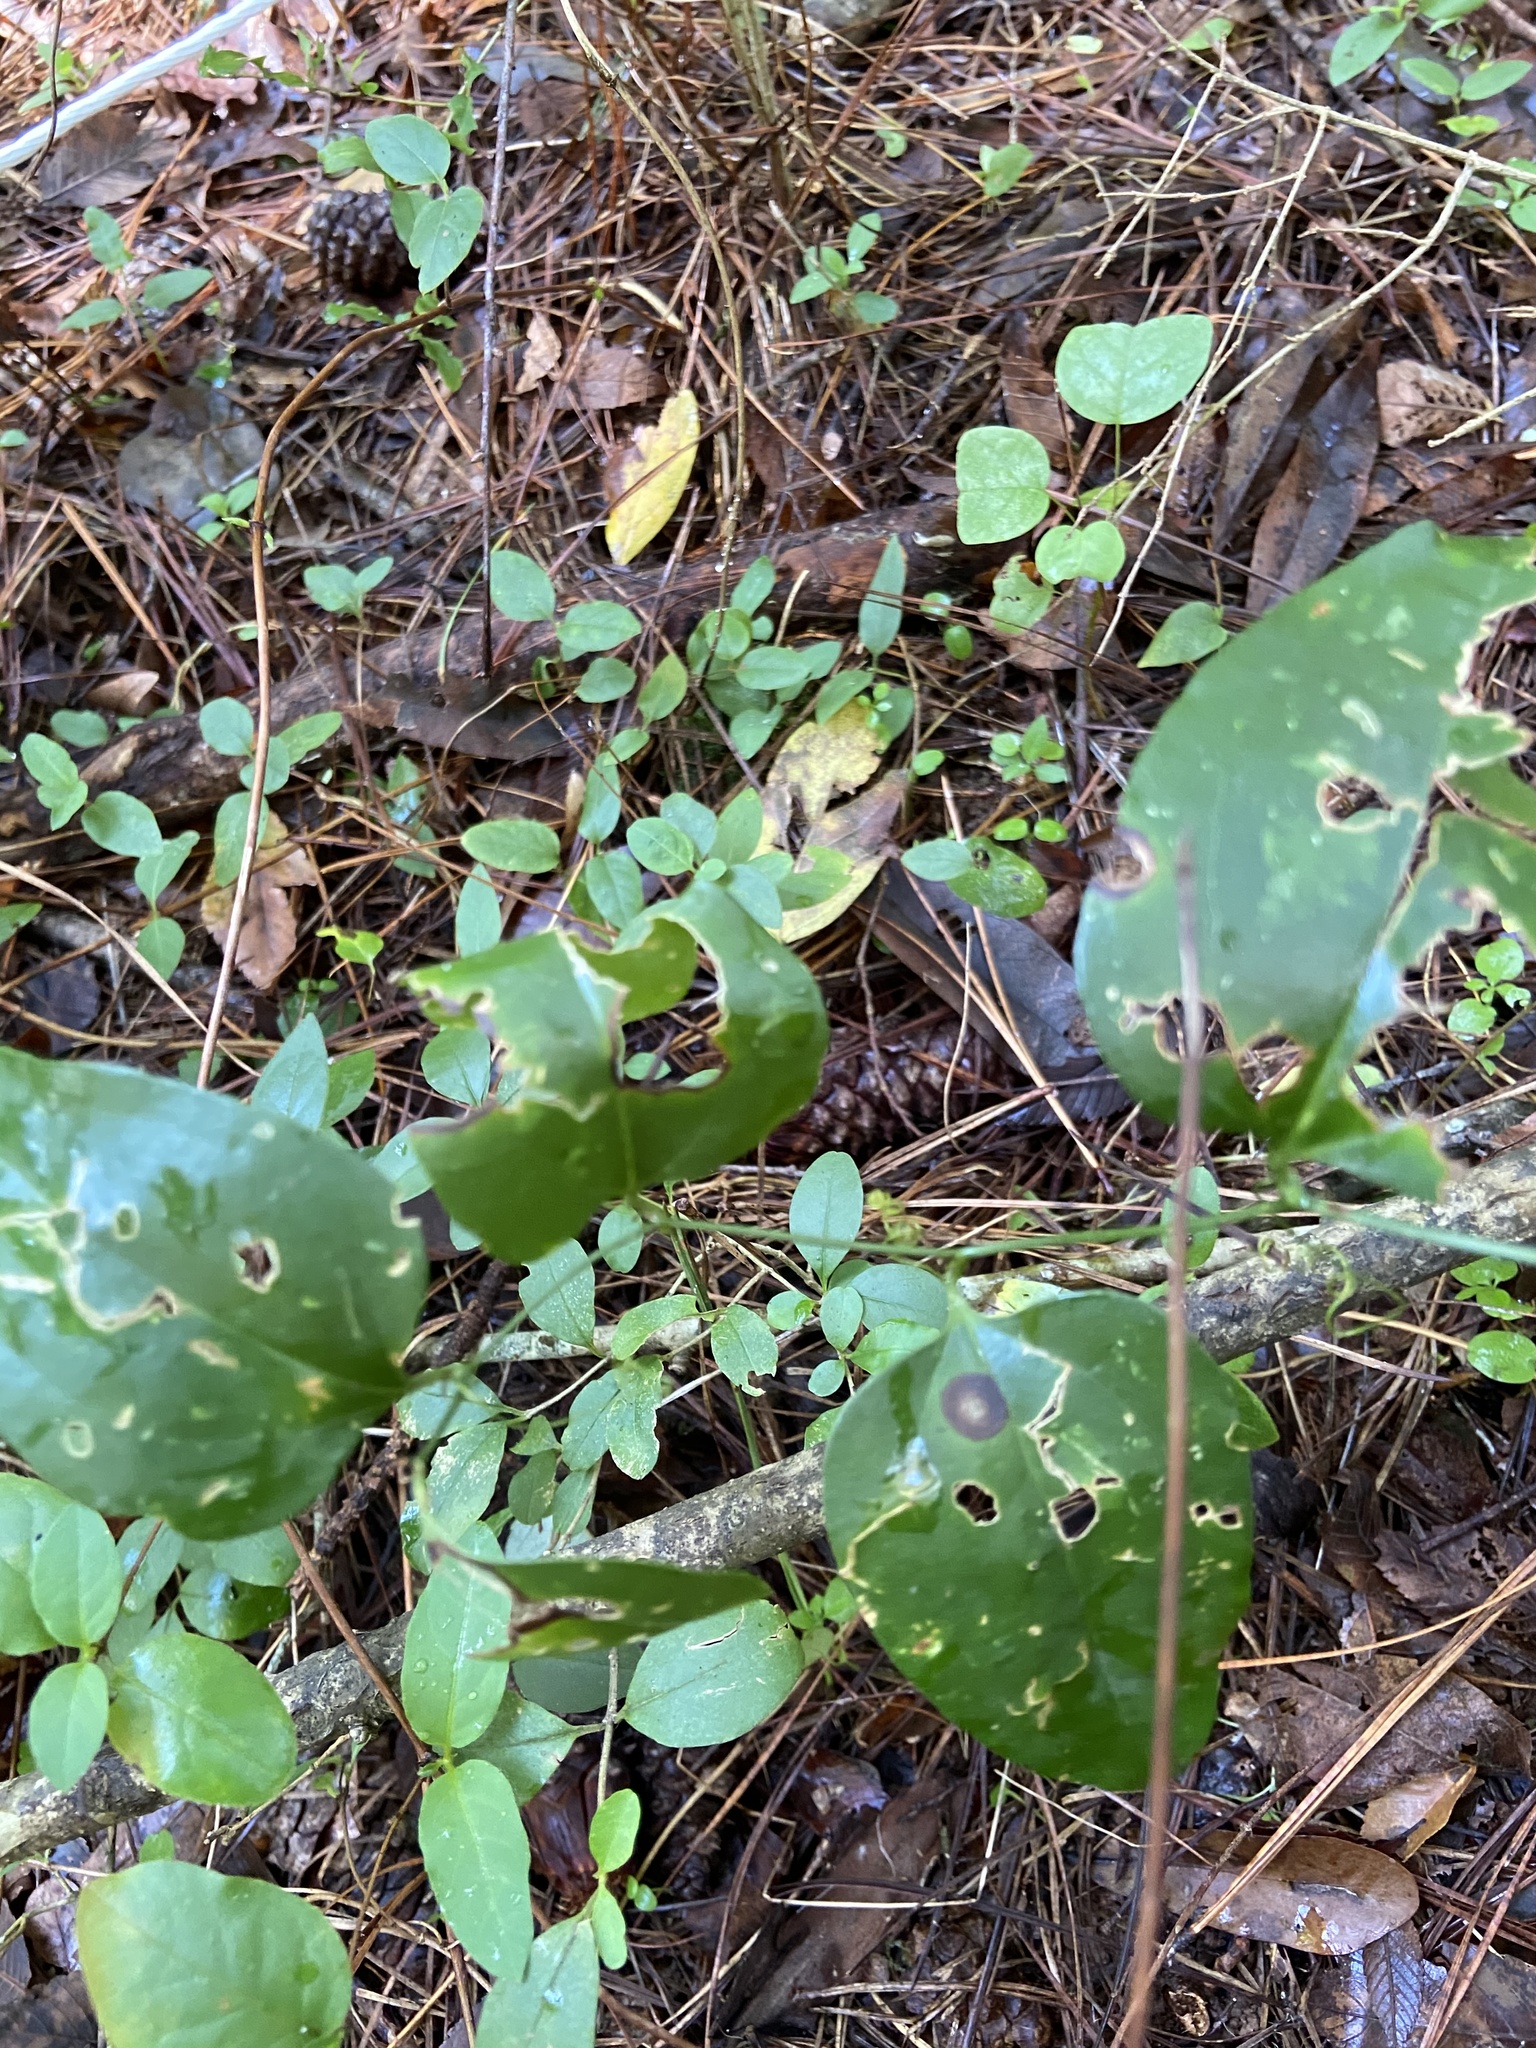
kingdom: Plantae
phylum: Tracheophyta
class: Liliopsida
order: Liliales
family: Smilacaceae
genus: Smilax
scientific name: Smilax rotundifolia
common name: Bullbriar
